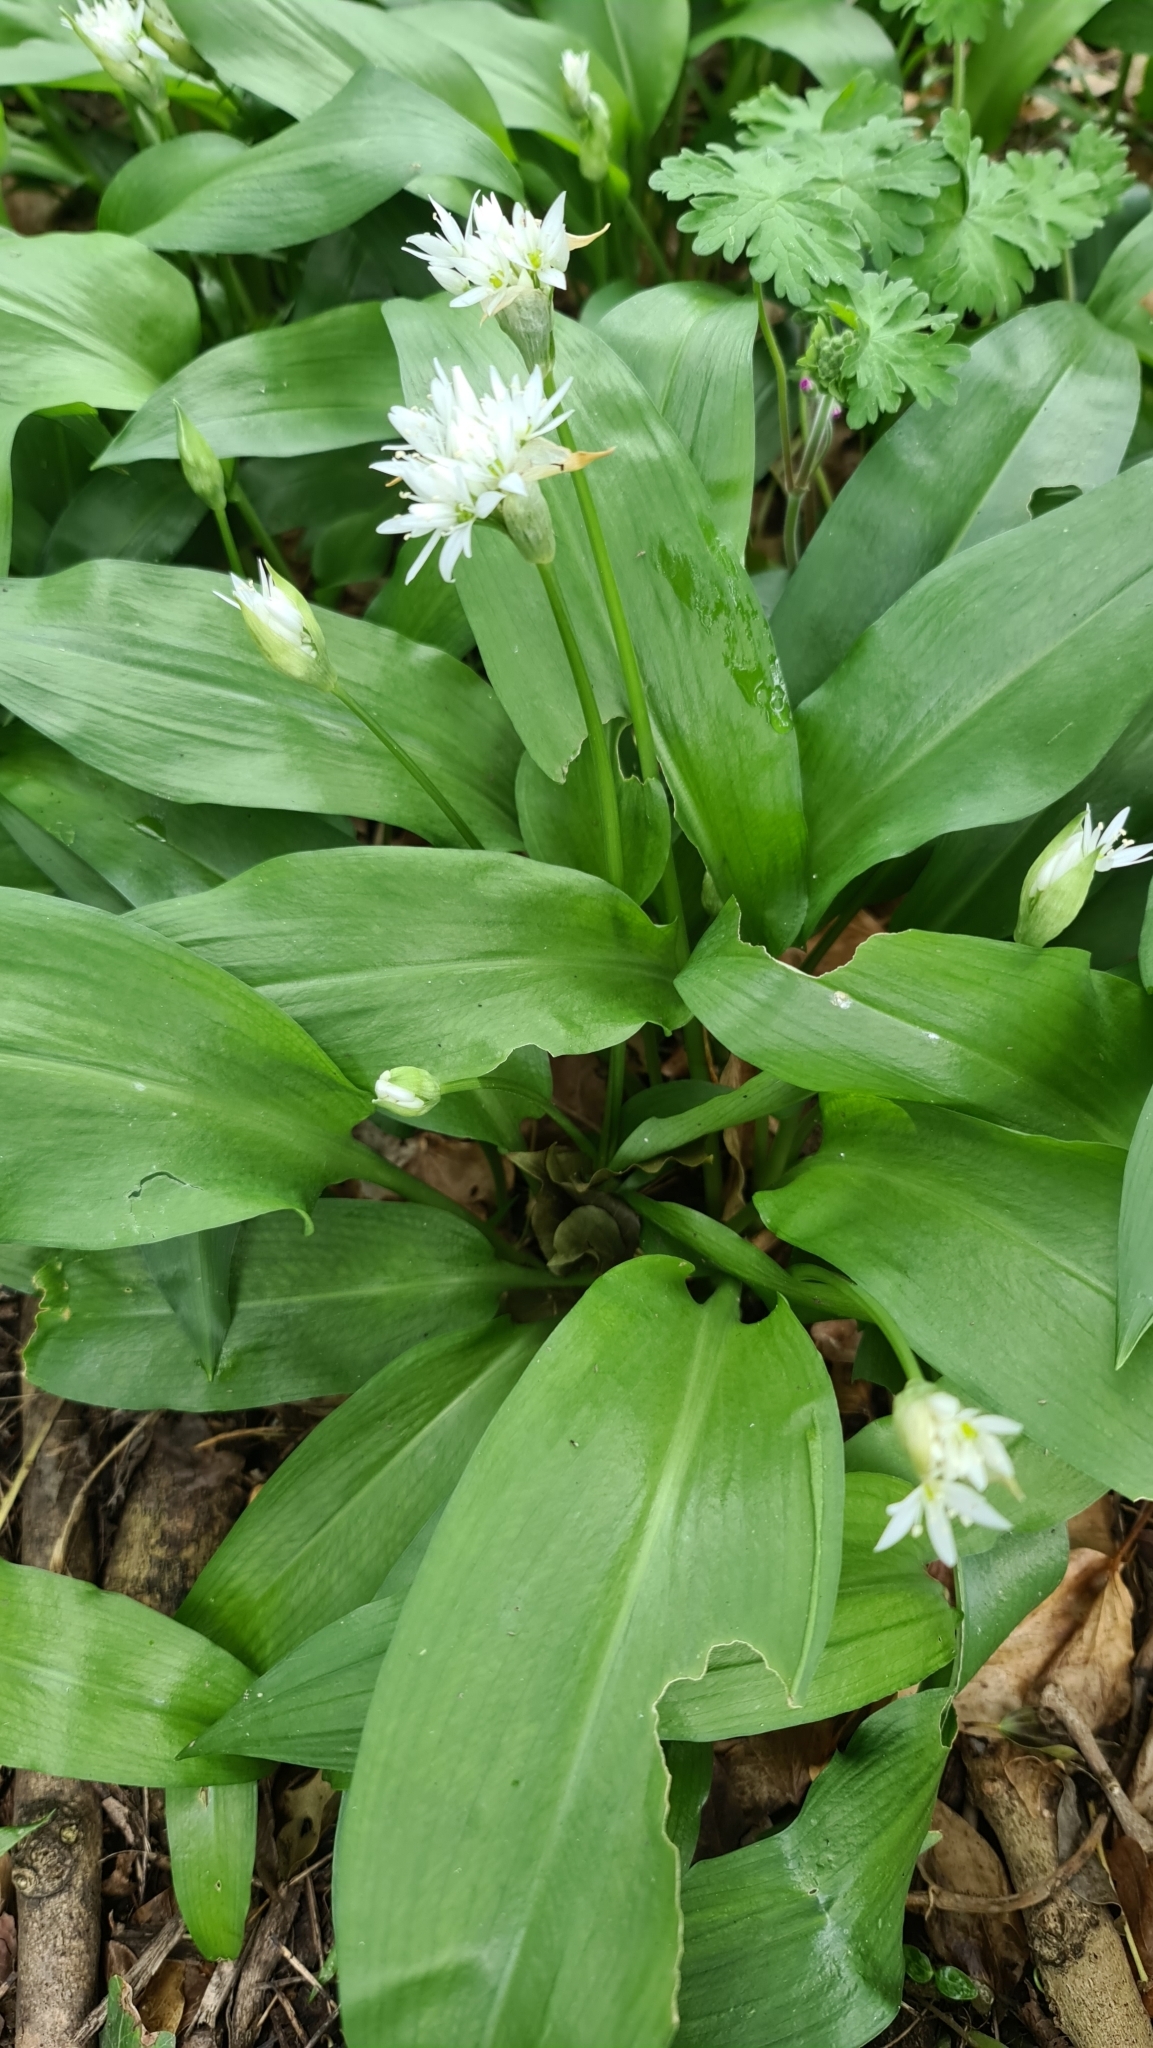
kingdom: Plantae
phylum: Tracheophyta
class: Liliopsida
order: Asparagales
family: Amaryllidaceae
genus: Allium
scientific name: Allium ursinum
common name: Ramsons
